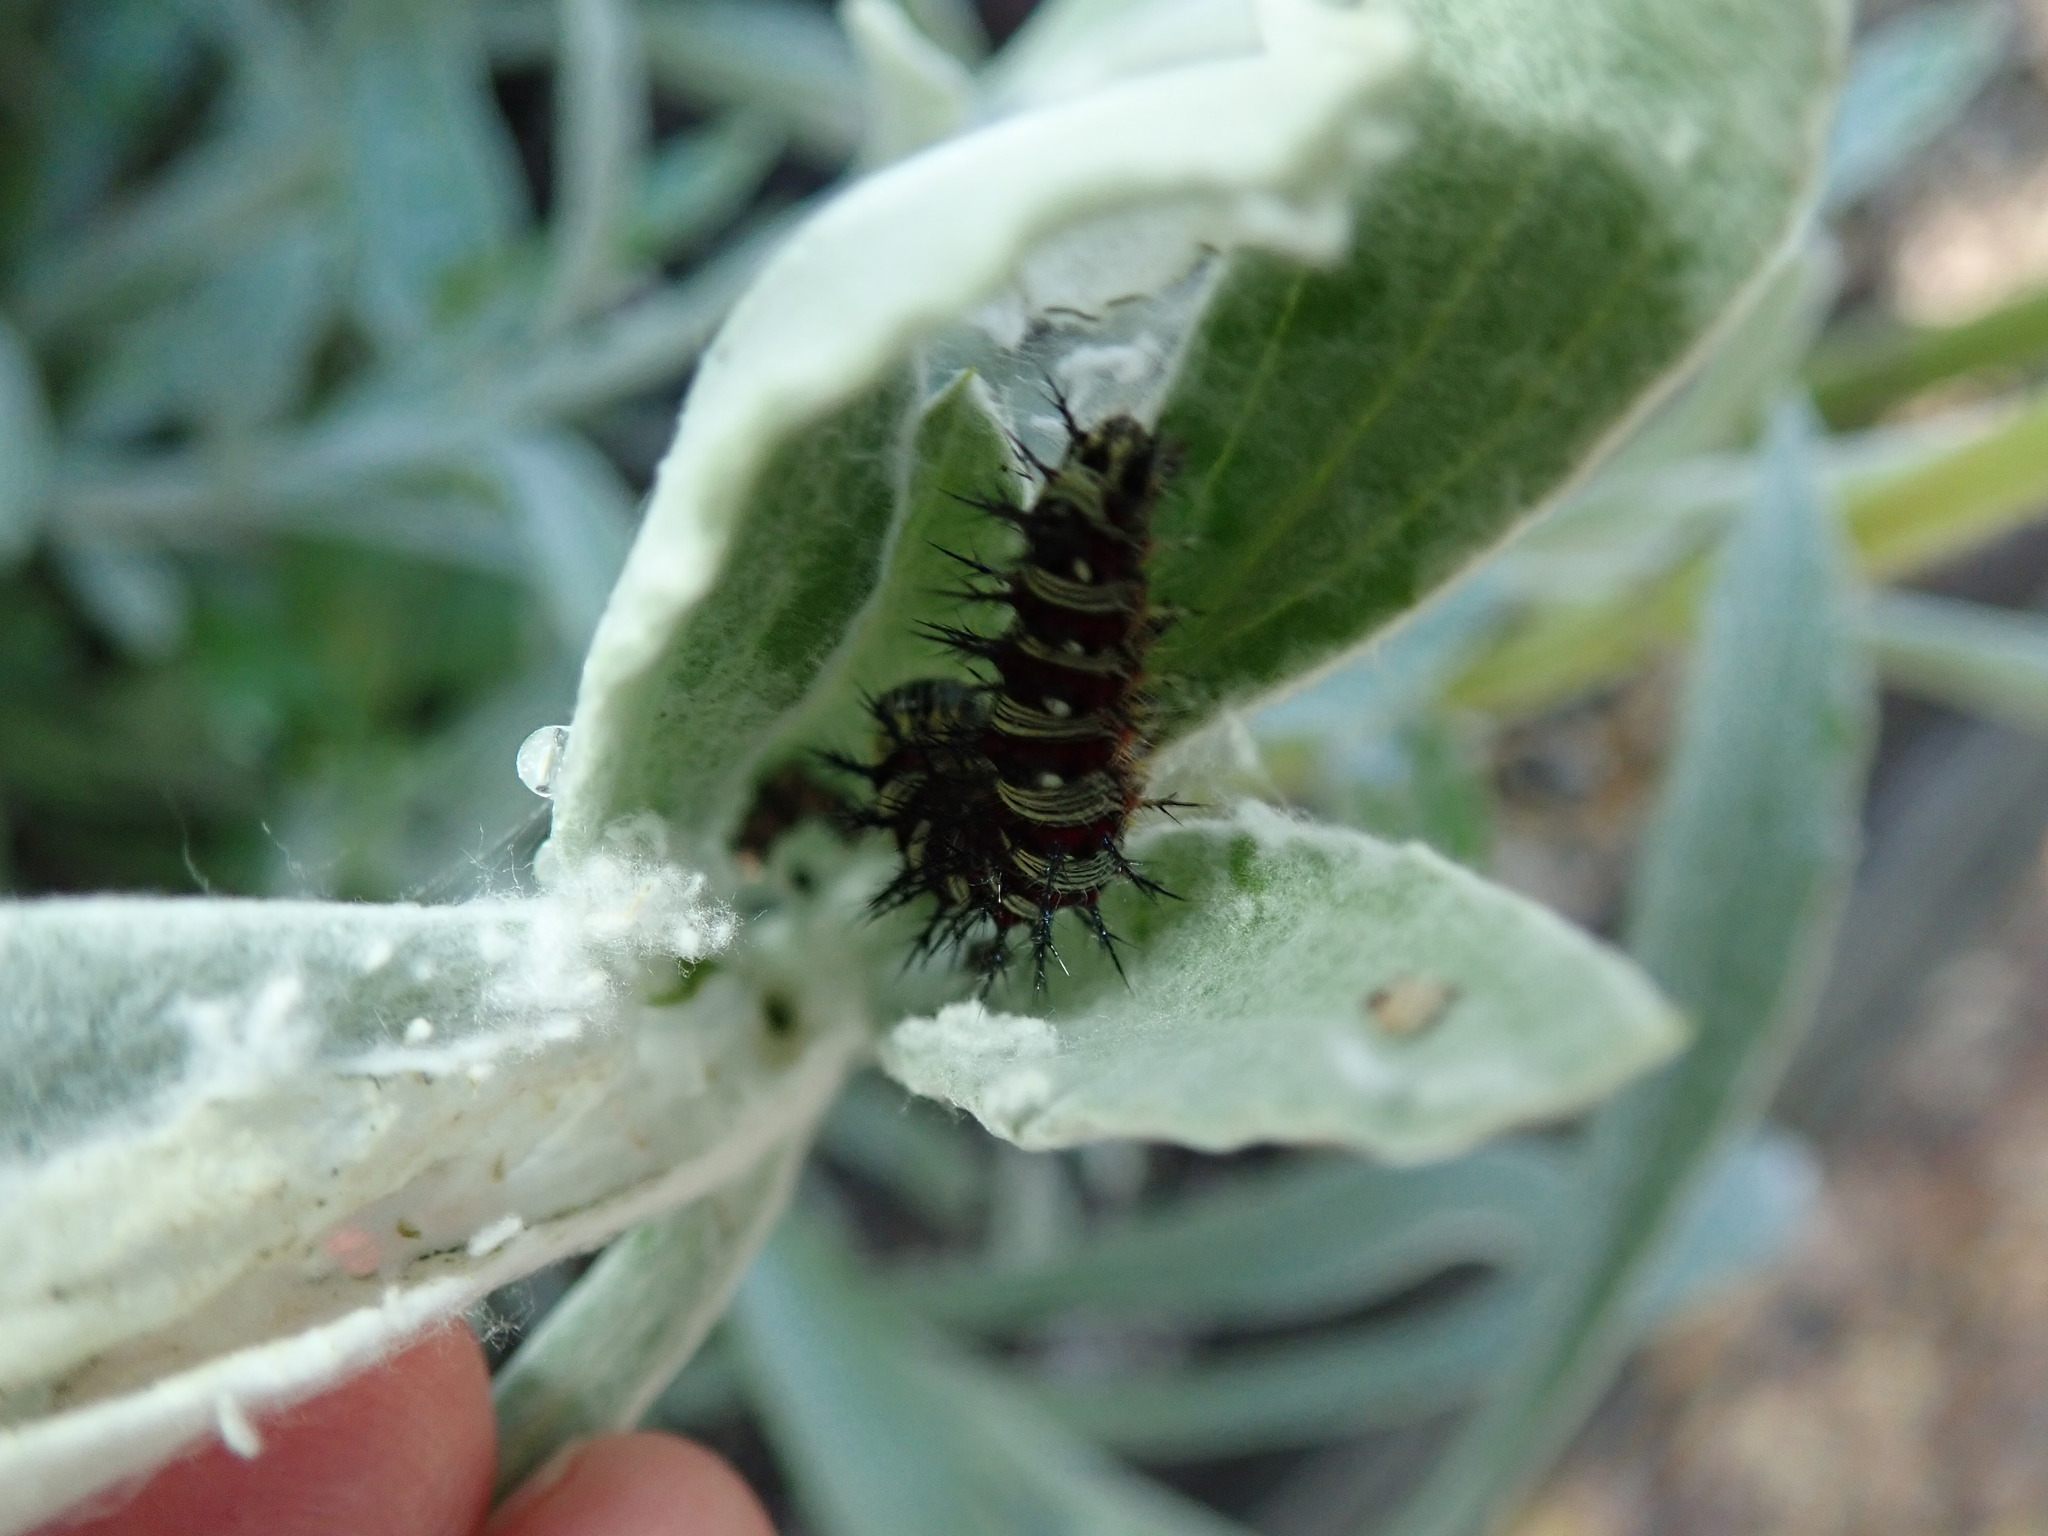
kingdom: Animalia
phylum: Arthropoda
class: Insecta
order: Lepidoptera
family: Nymphalidae
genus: Vanessa
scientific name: Vanessa virginiensis
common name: American lady
